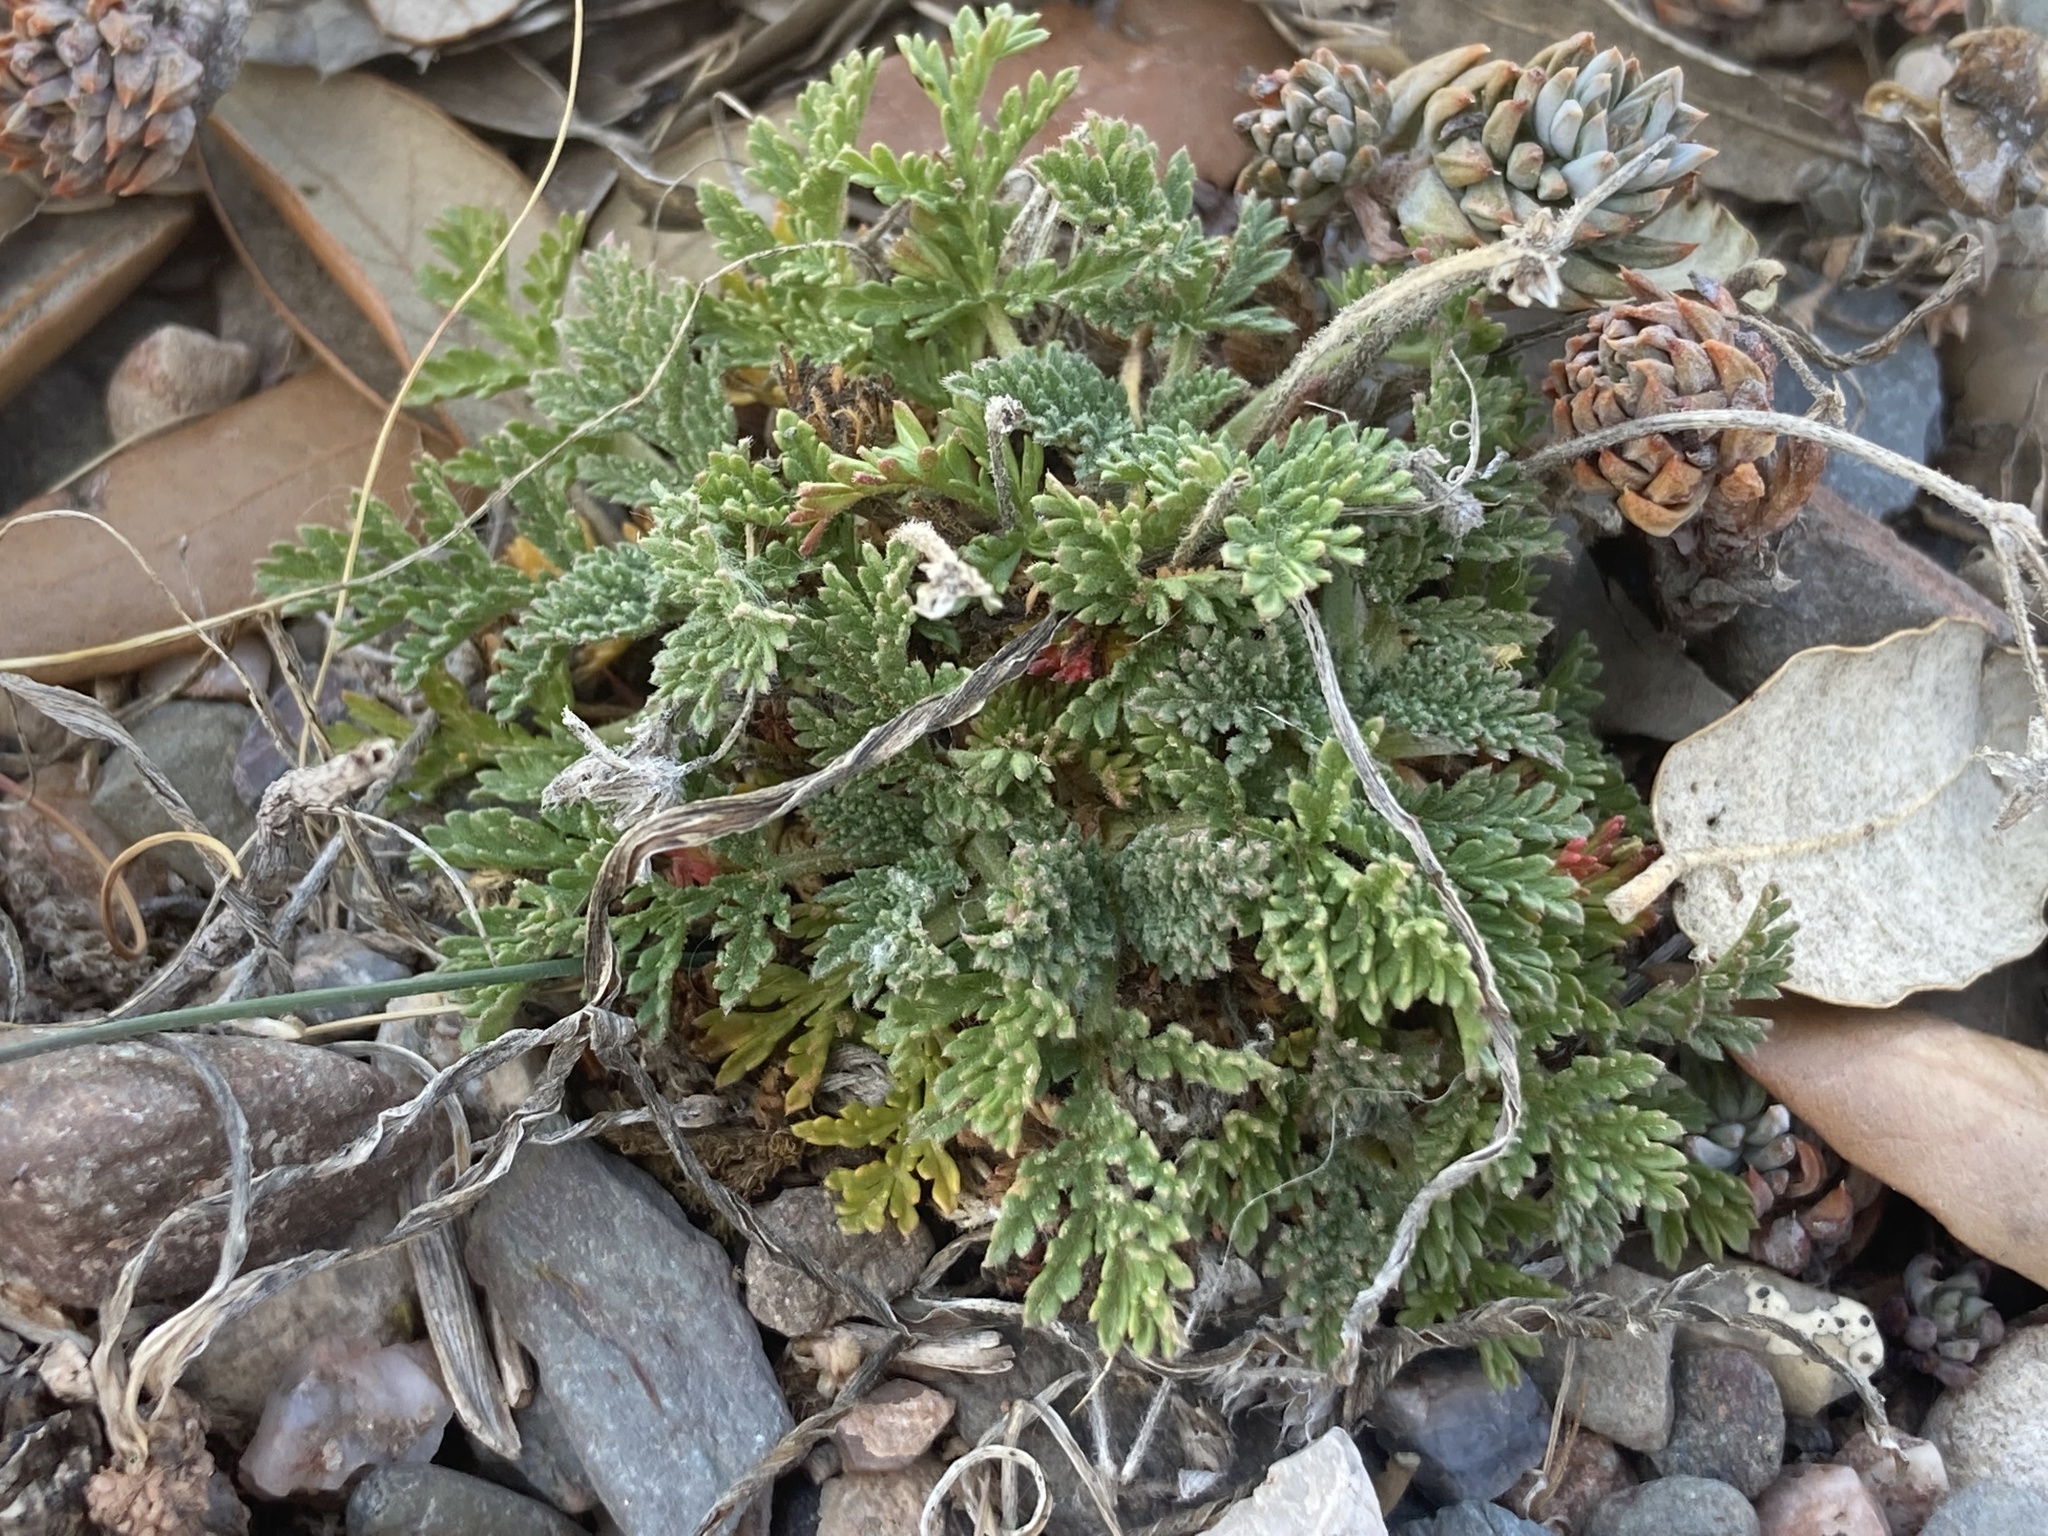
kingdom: Plantae
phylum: Tracheophyta
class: Magnoliopsida
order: Geraniales
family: Geraniaceae
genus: Erodium
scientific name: Erodium glandulosum
